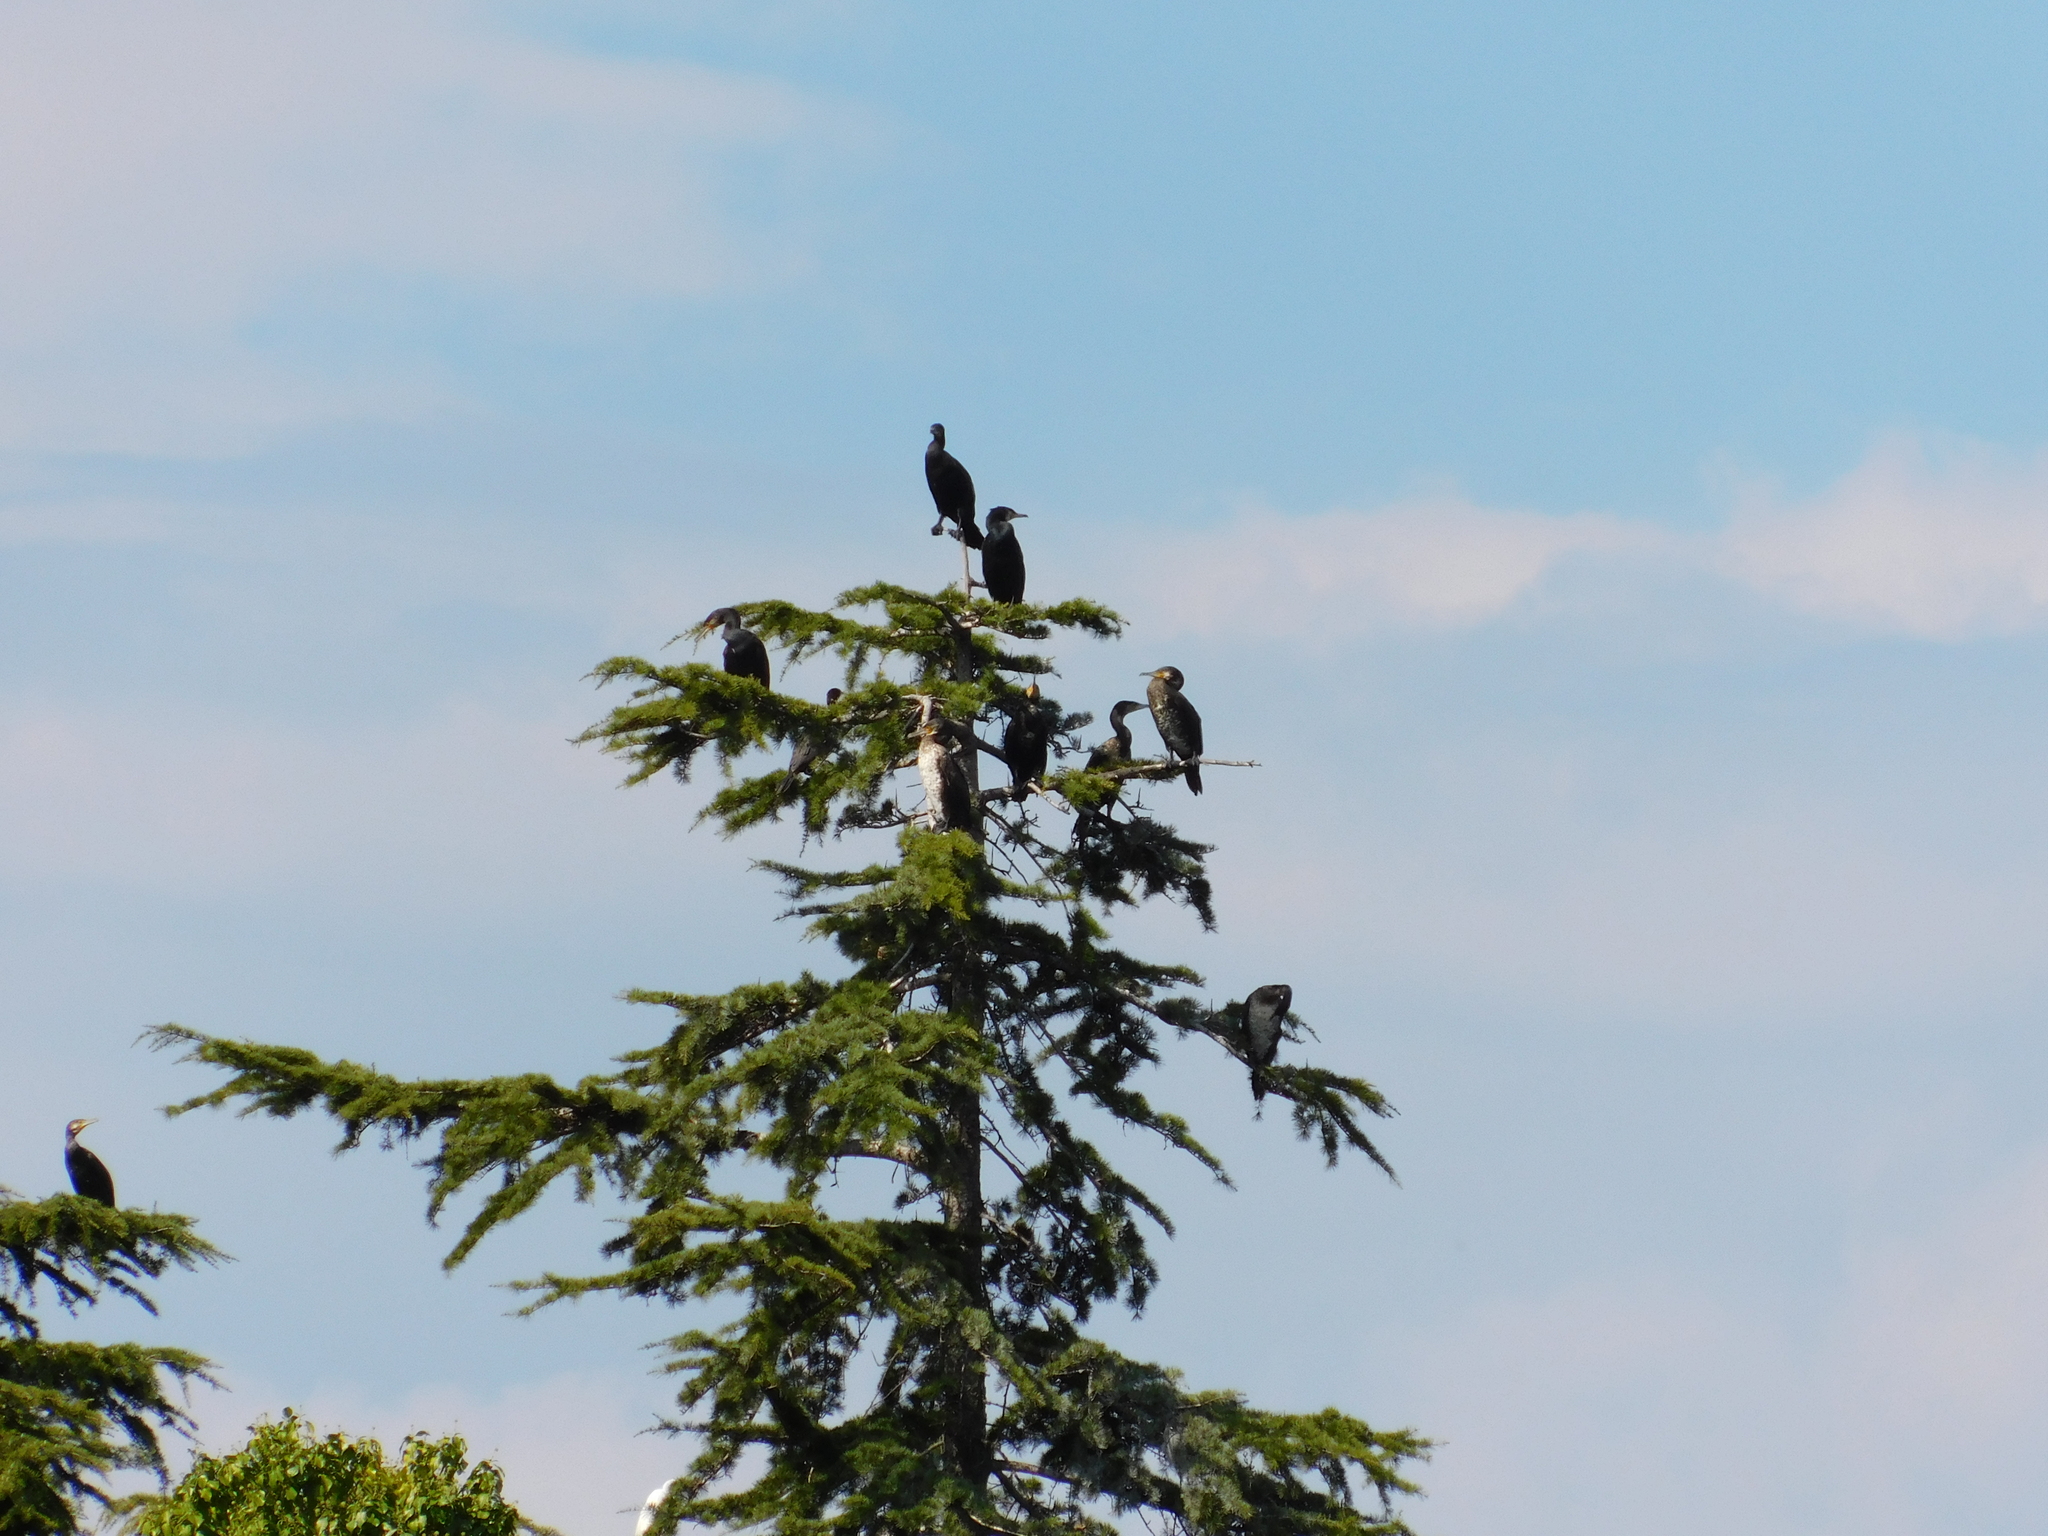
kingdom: Animalia
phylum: Chordata
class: Aves
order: Suliformes
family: Phalacrocoracidae
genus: Phalacrocorax
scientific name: Phalacrocorax carbo
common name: Great cormorant
